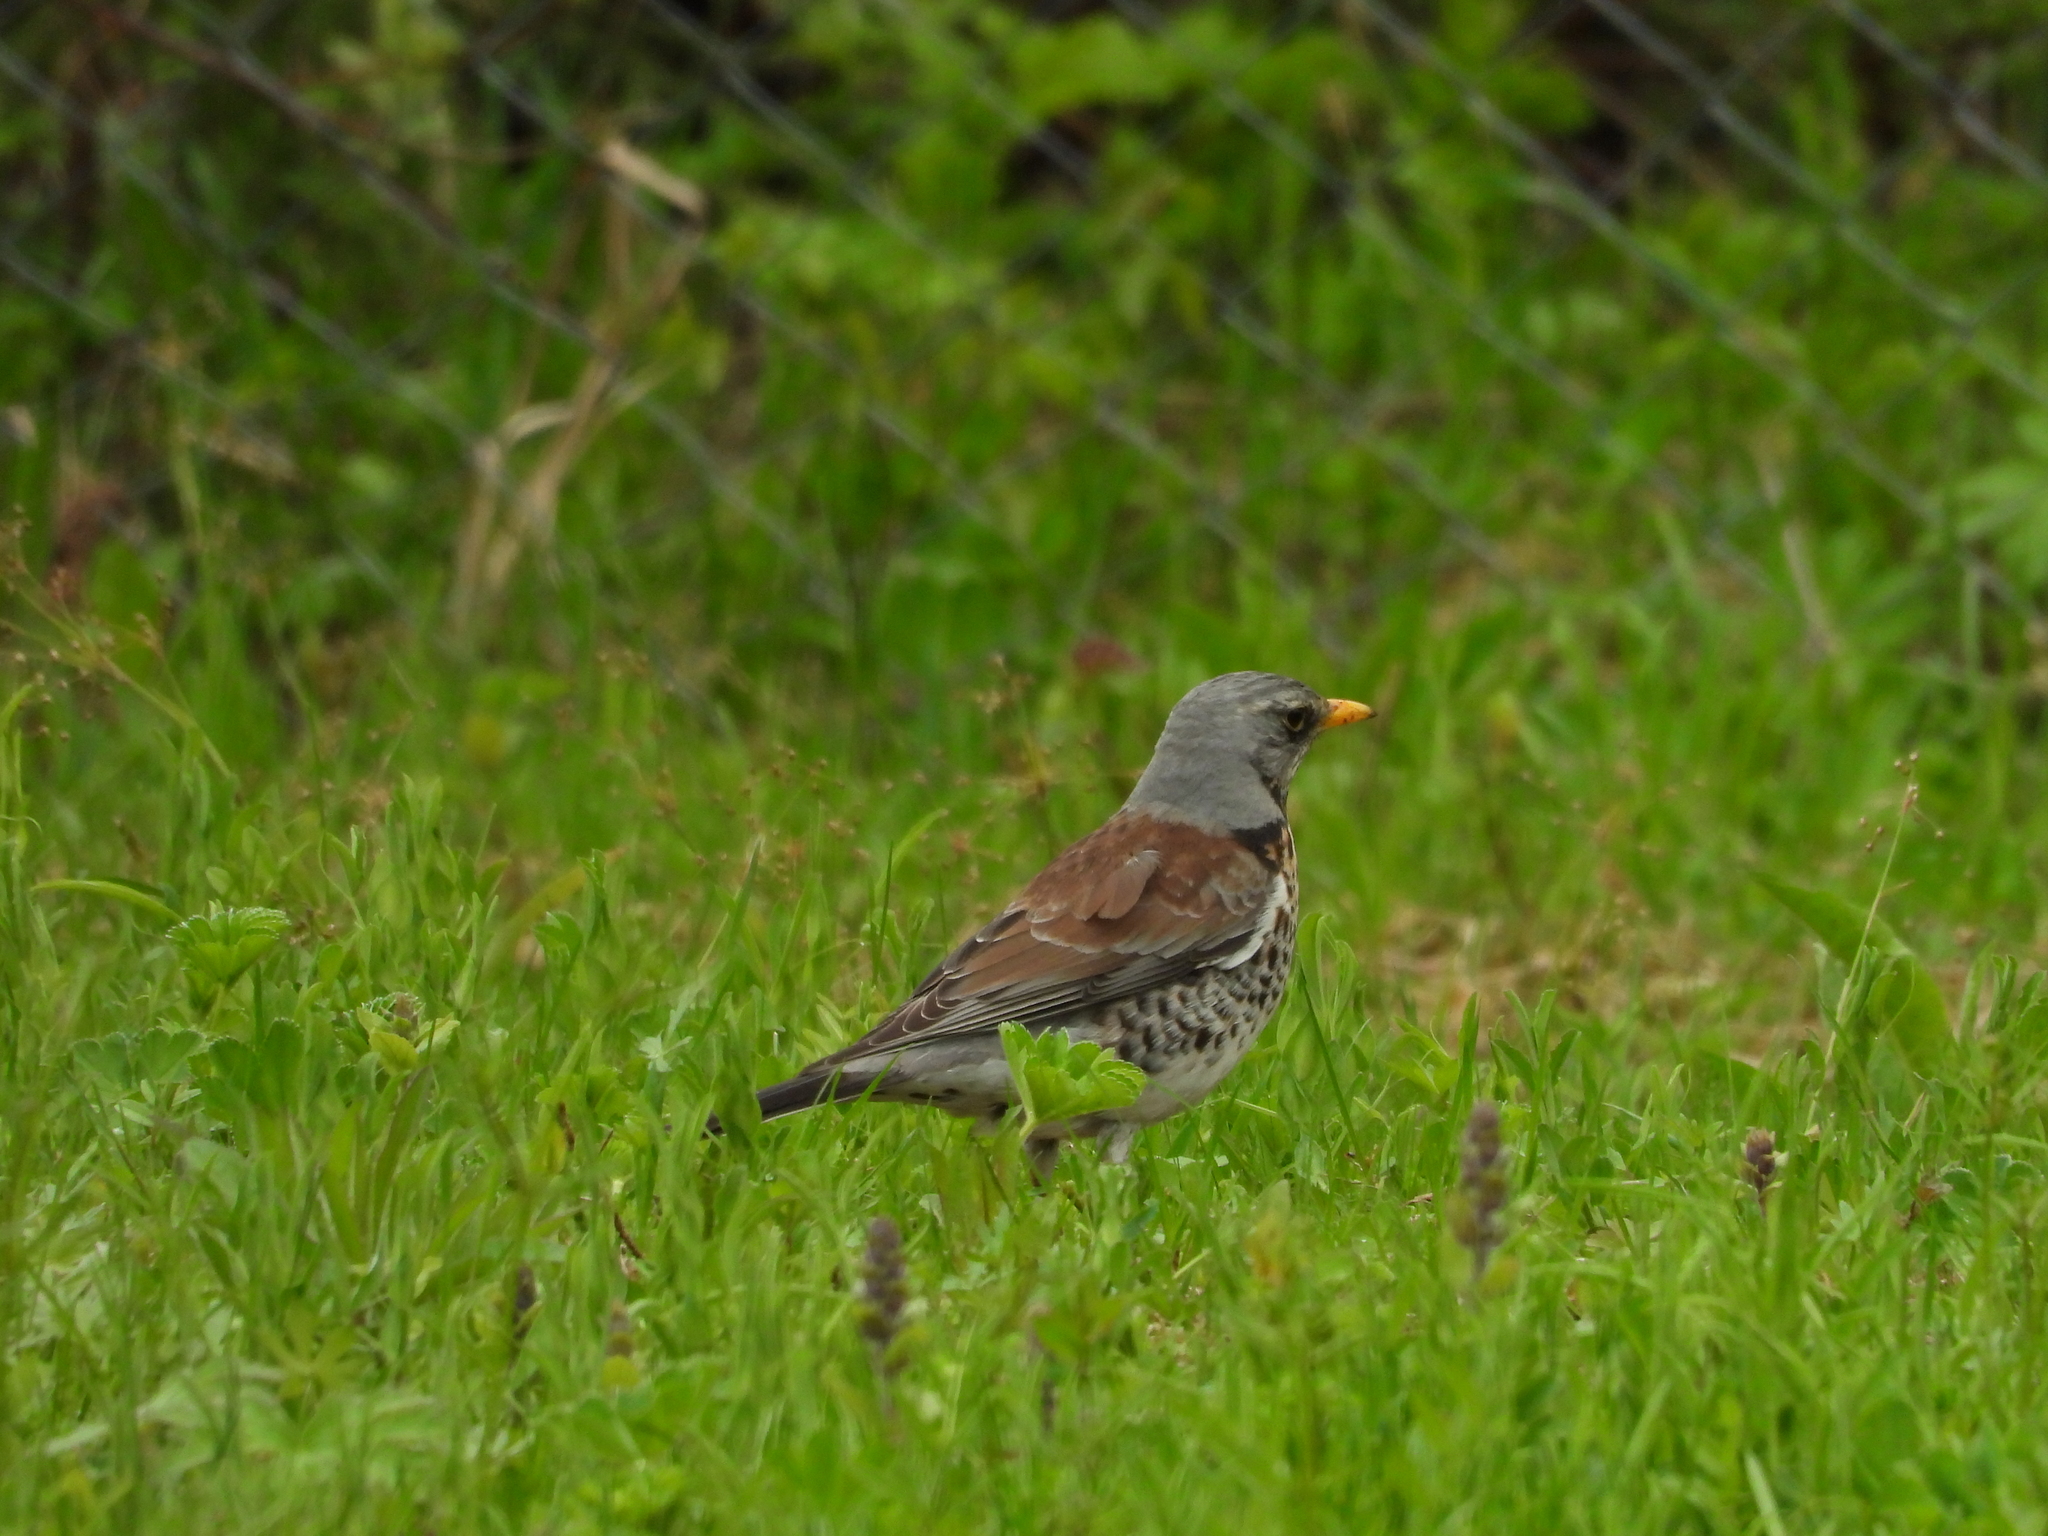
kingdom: Animalia
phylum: Chordata
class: Aves
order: Passeriformes
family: Turdidae
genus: Turdus
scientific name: Turdus pilaris
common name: Fieldfare
